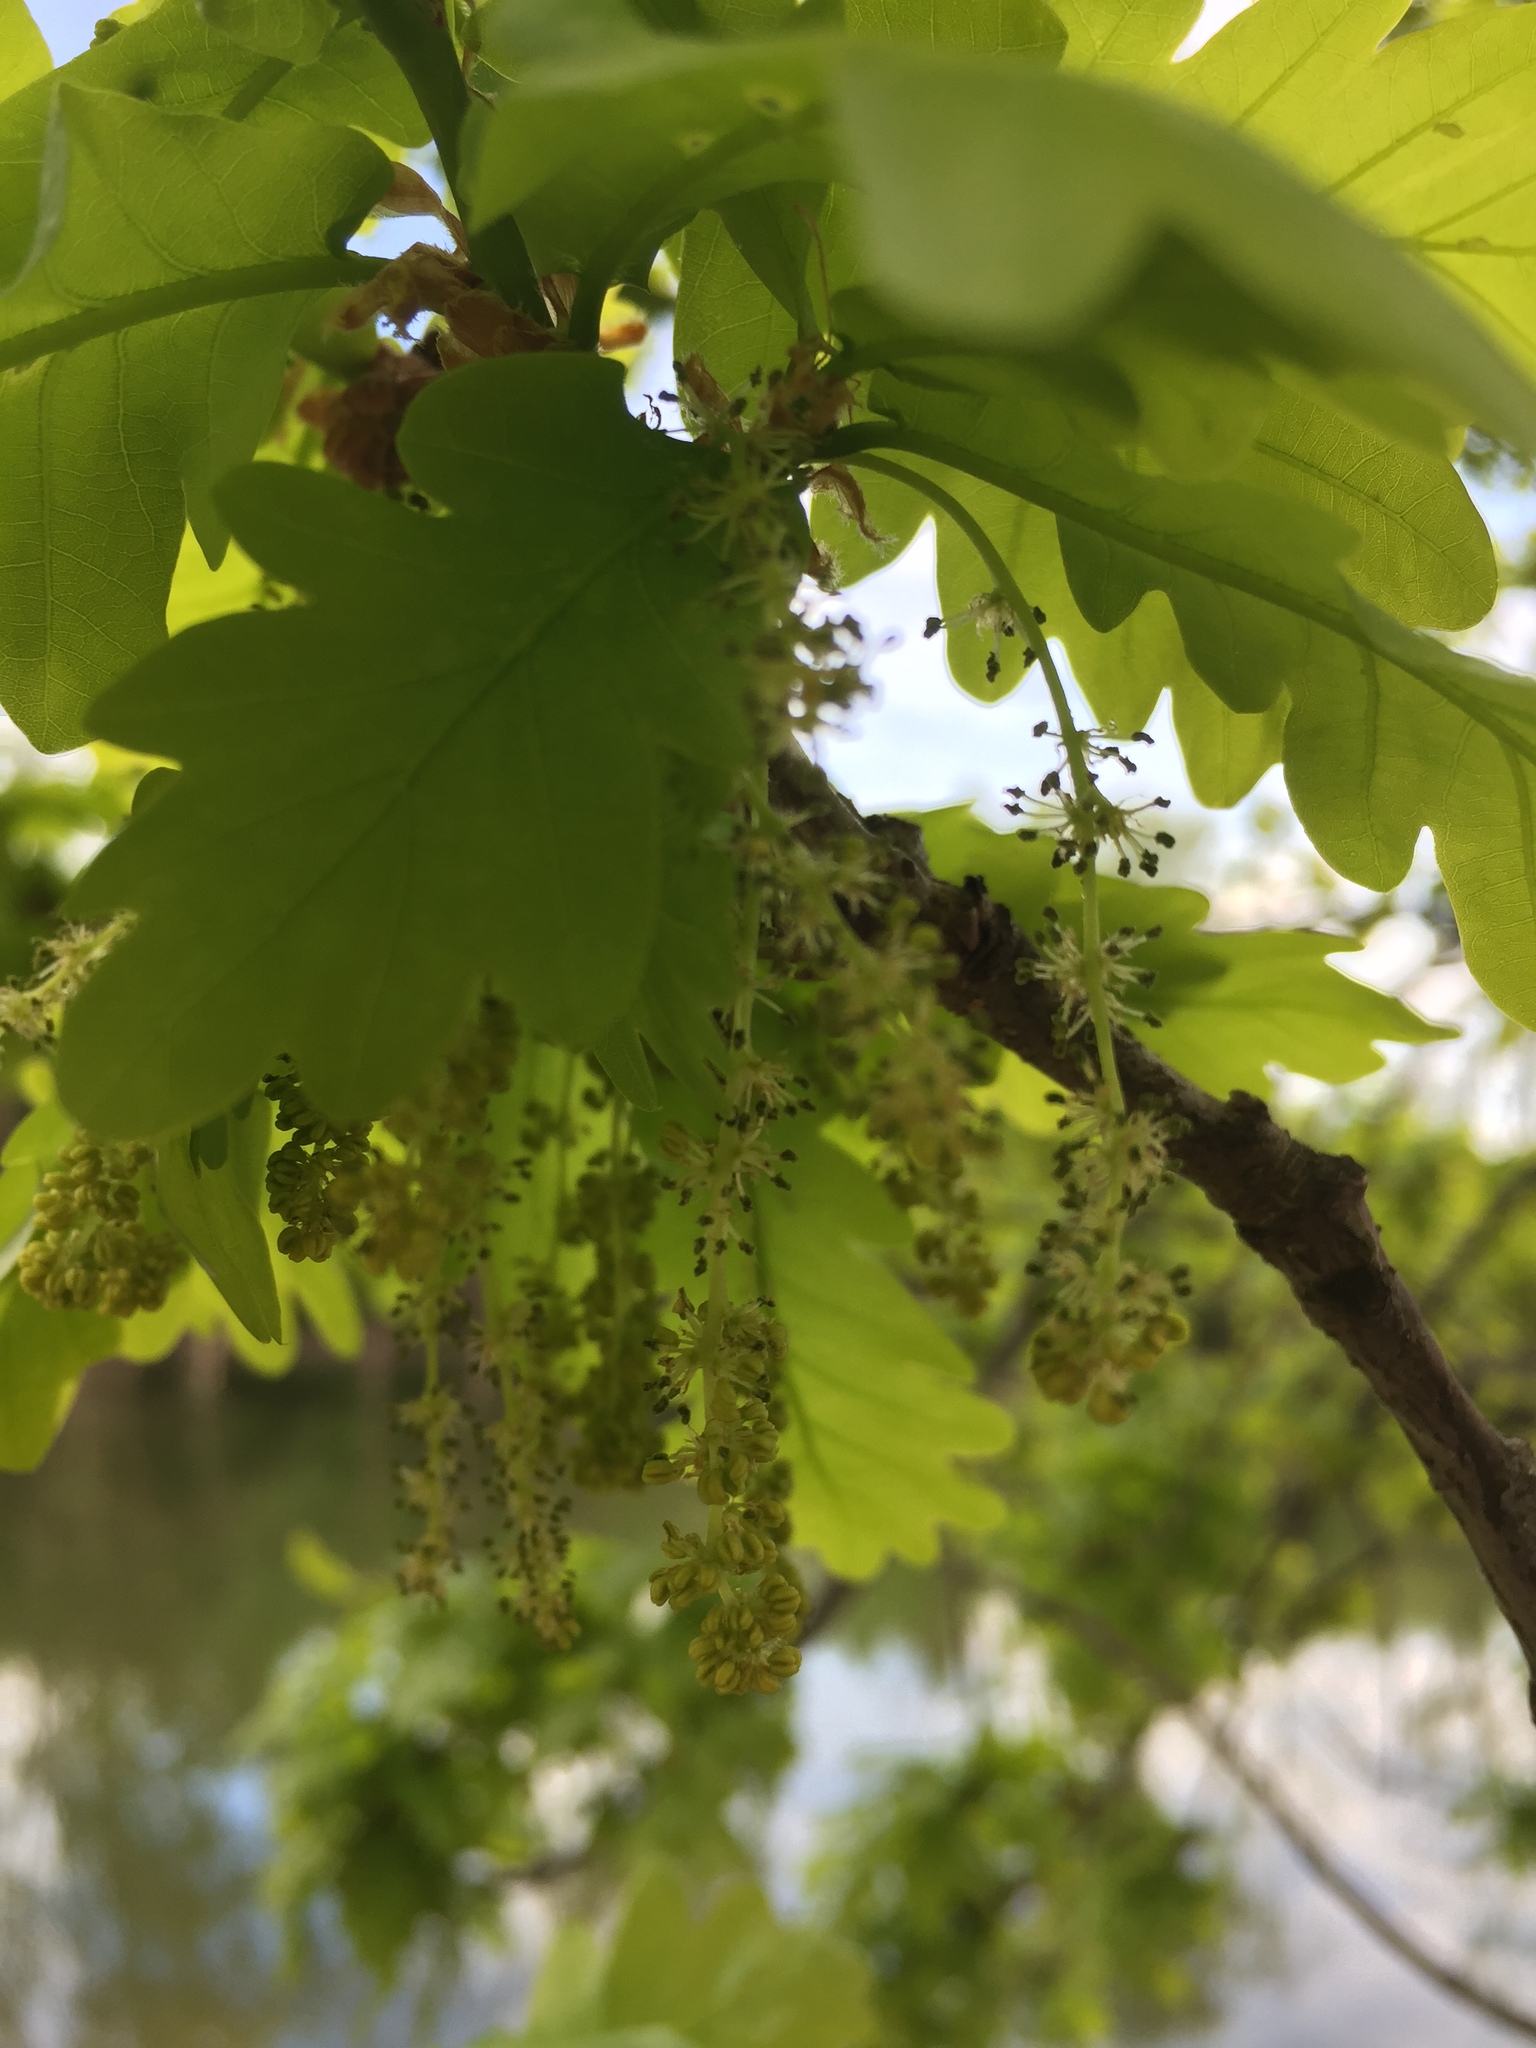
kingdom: Plantae
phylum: Tracheophyta
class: Magnoliopsida
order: Fagales
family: Fagaceae
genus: Quercus
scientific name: Quercus robur
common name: Pedunculate oak
